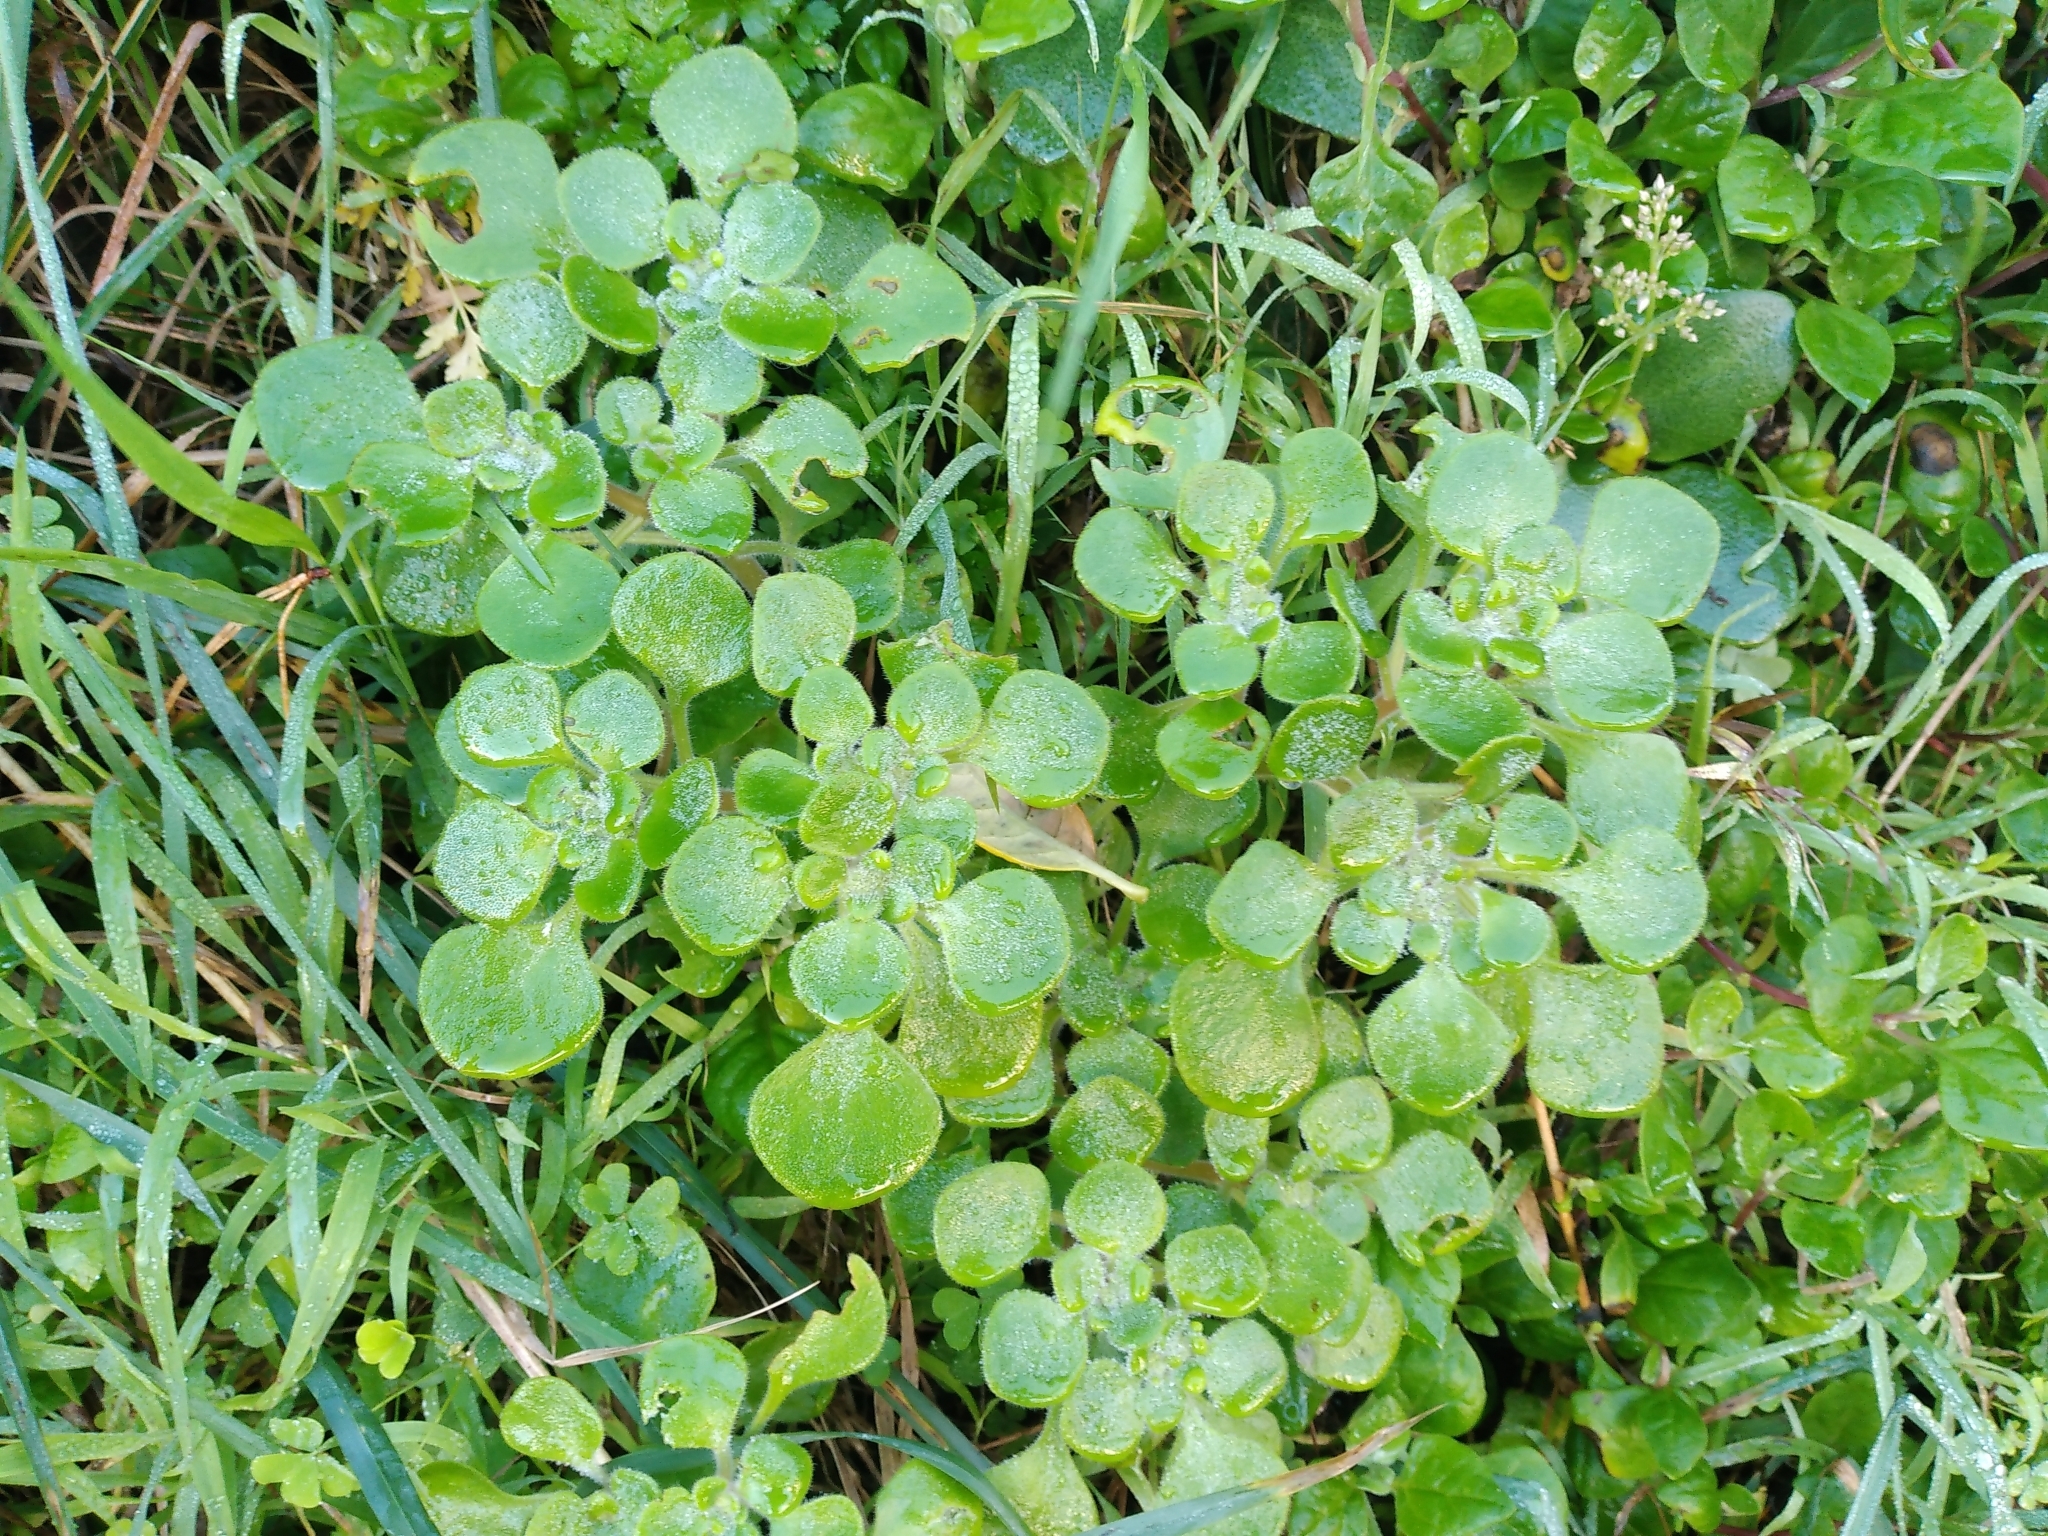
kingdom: Plantae
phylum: Tracheophyta
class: Magnoliopsida
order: Saxifragales
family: Crassulaceae
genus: Aichryson
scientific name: Aichryson laxum
